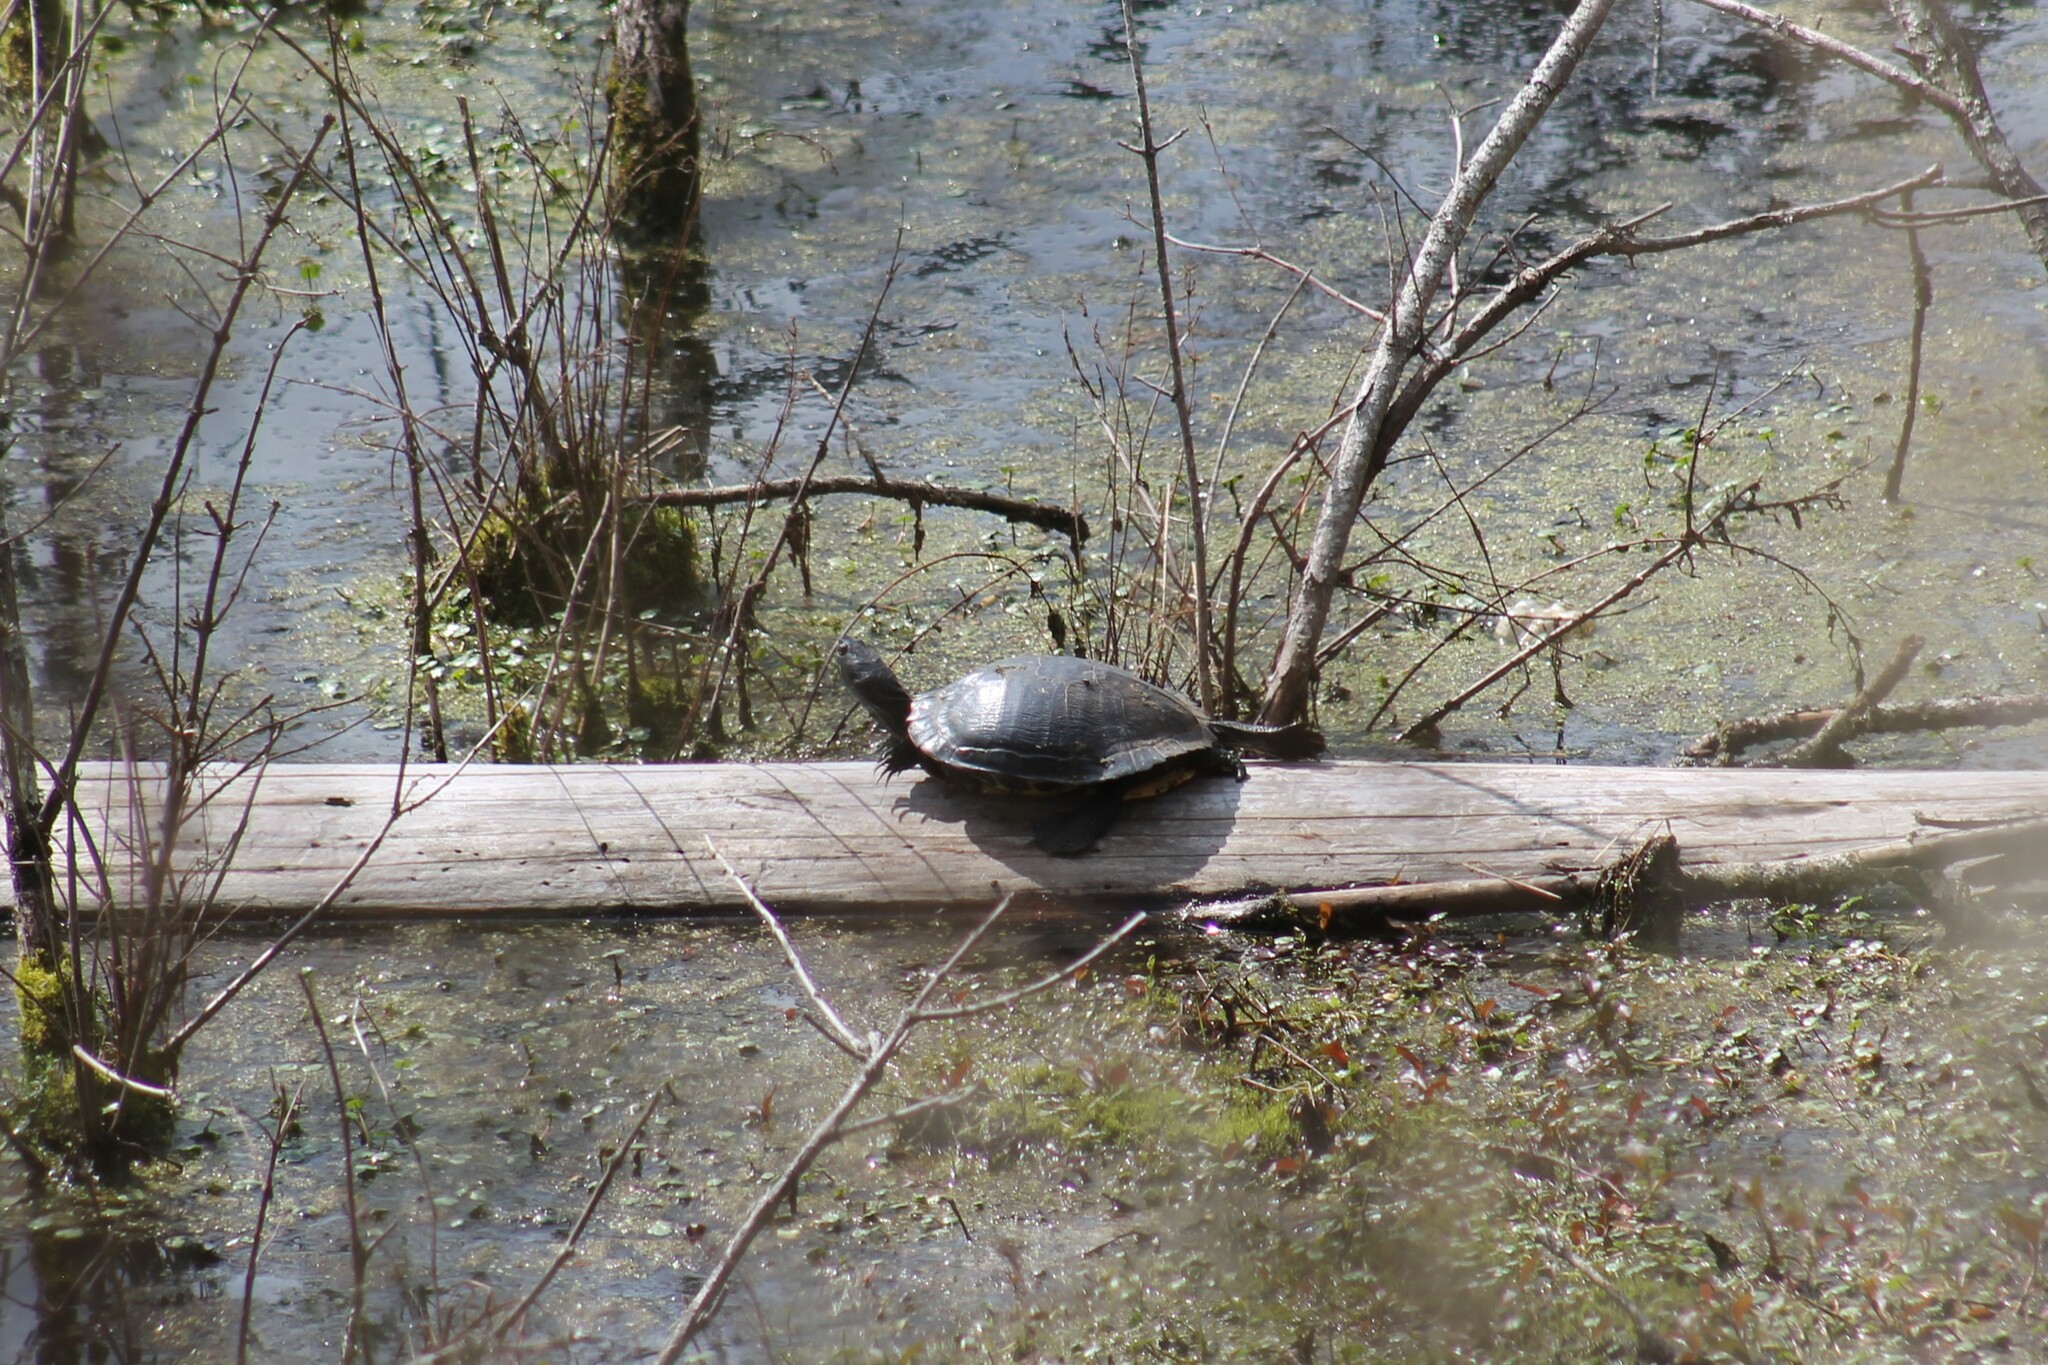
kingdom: Animalia
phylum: Chordata
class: Testudines
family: Emydidae
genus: Trachemys
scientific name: Trachemys scripta
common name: Slider
